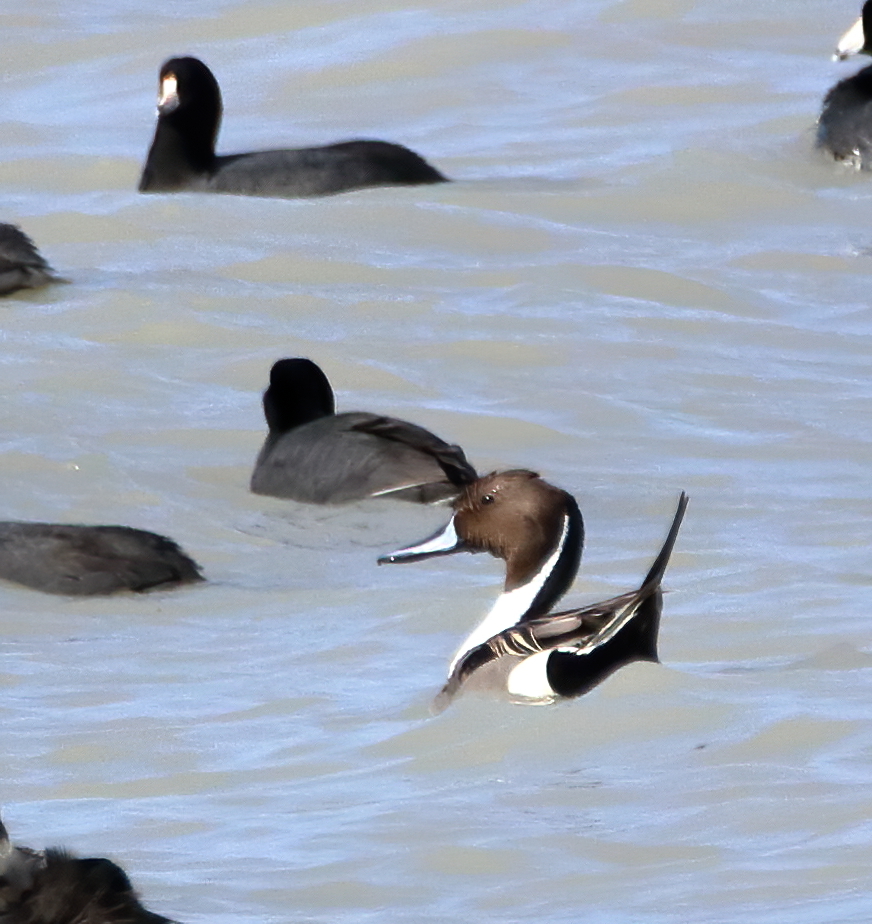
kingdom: Animalia
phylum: Chordata
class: Aves
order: Anseriformes
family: Anatidae
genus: Anas
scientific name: Anas acuta
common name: Northern pintail
